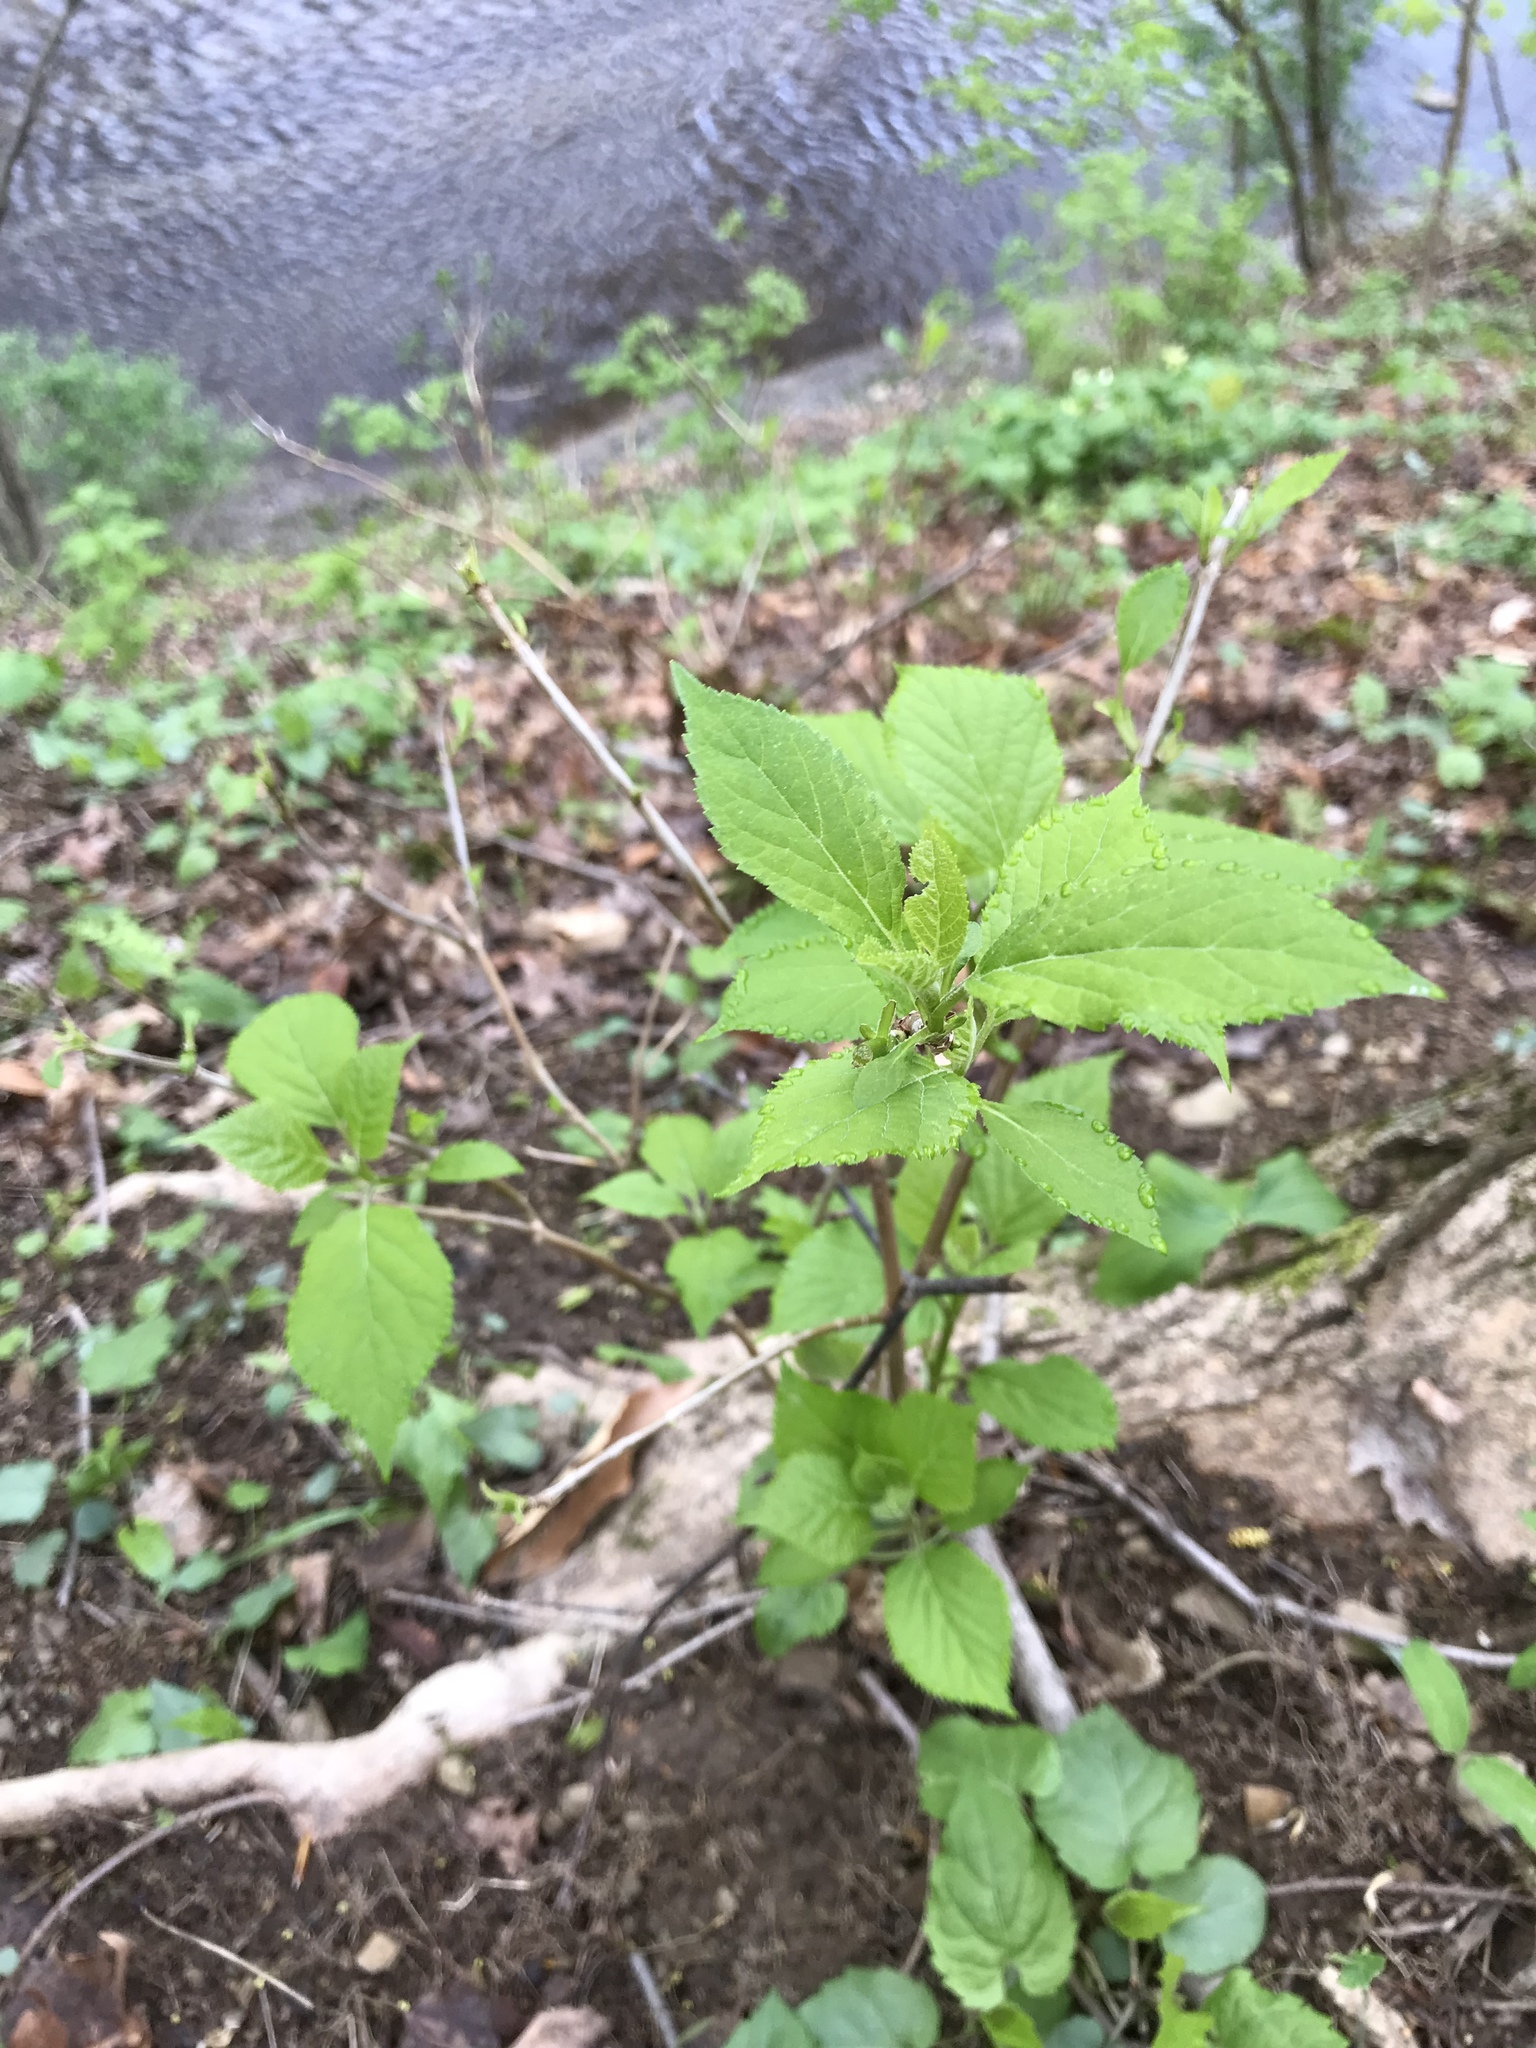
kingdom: Plantae
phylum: Tracheophyta
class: Magnoliopsida
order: Cornales
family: Hydrangeaceae
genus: Hydrangea
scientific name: Hydrangea arborescens
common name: Sevenbark
